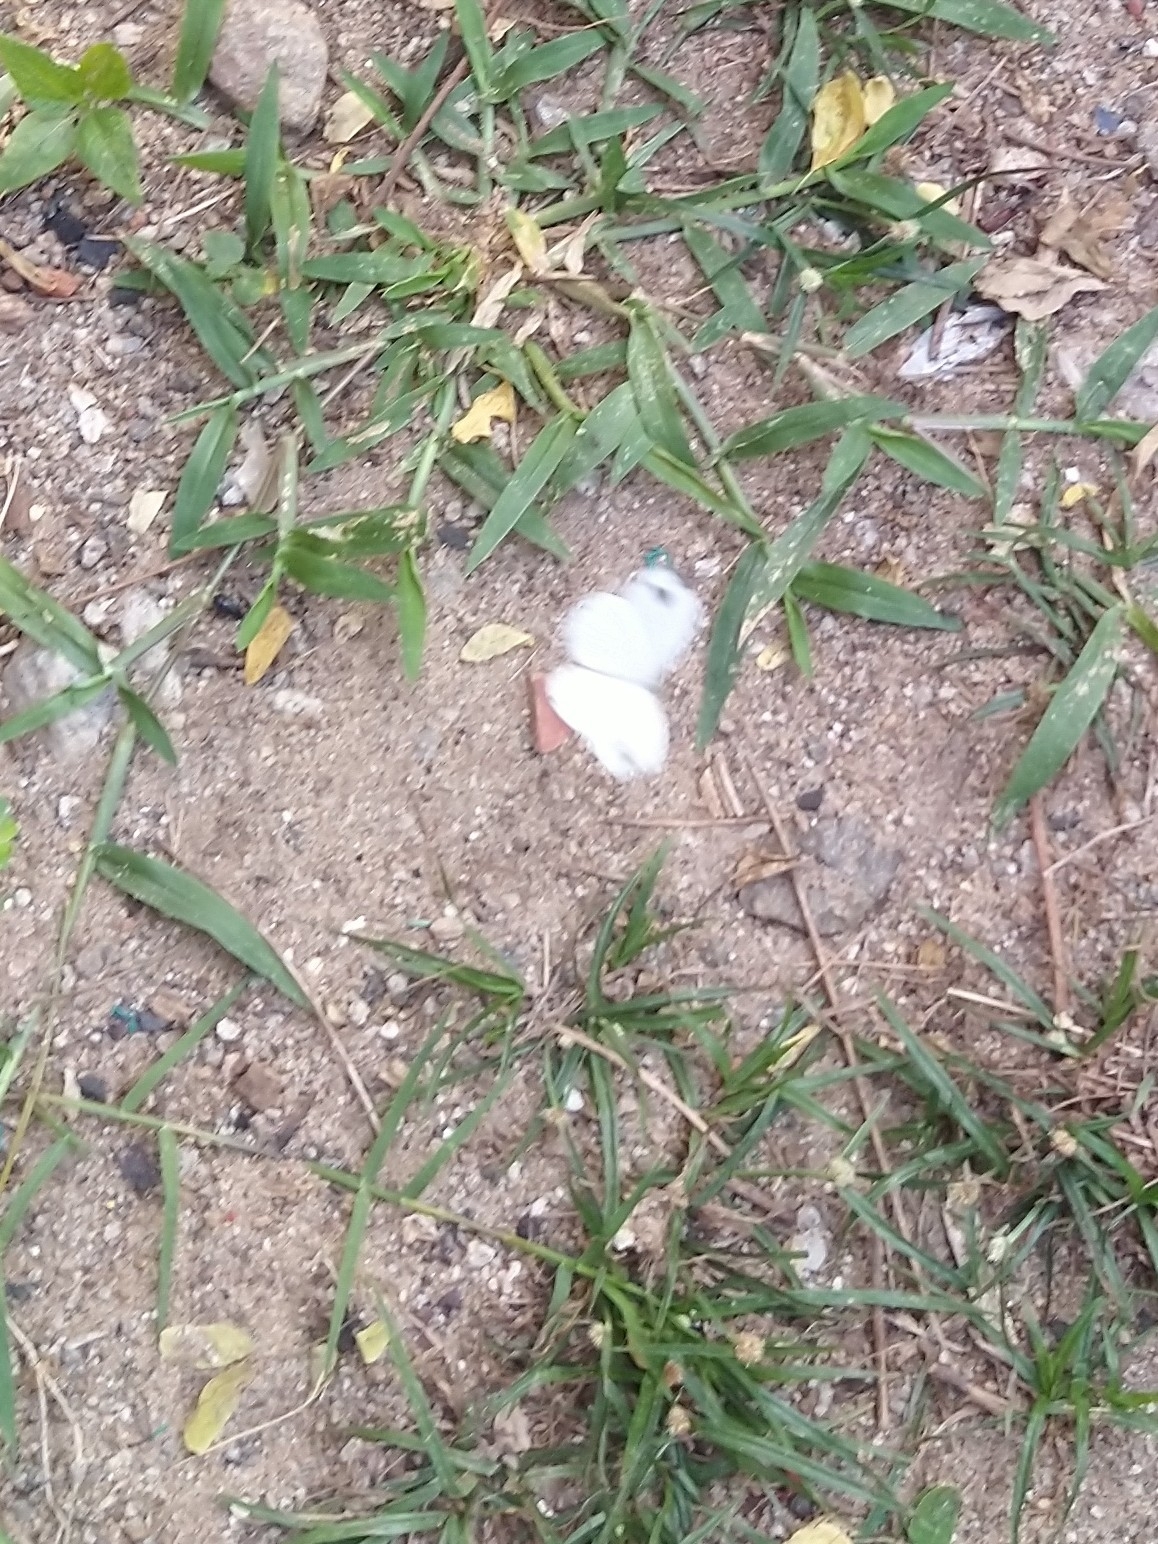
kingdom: Animalia
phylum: Arthropoda
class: Insecta
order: Lepidoptera
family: Pieridae
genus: Leptosia
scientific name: Leptosia nina
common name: Psyche
